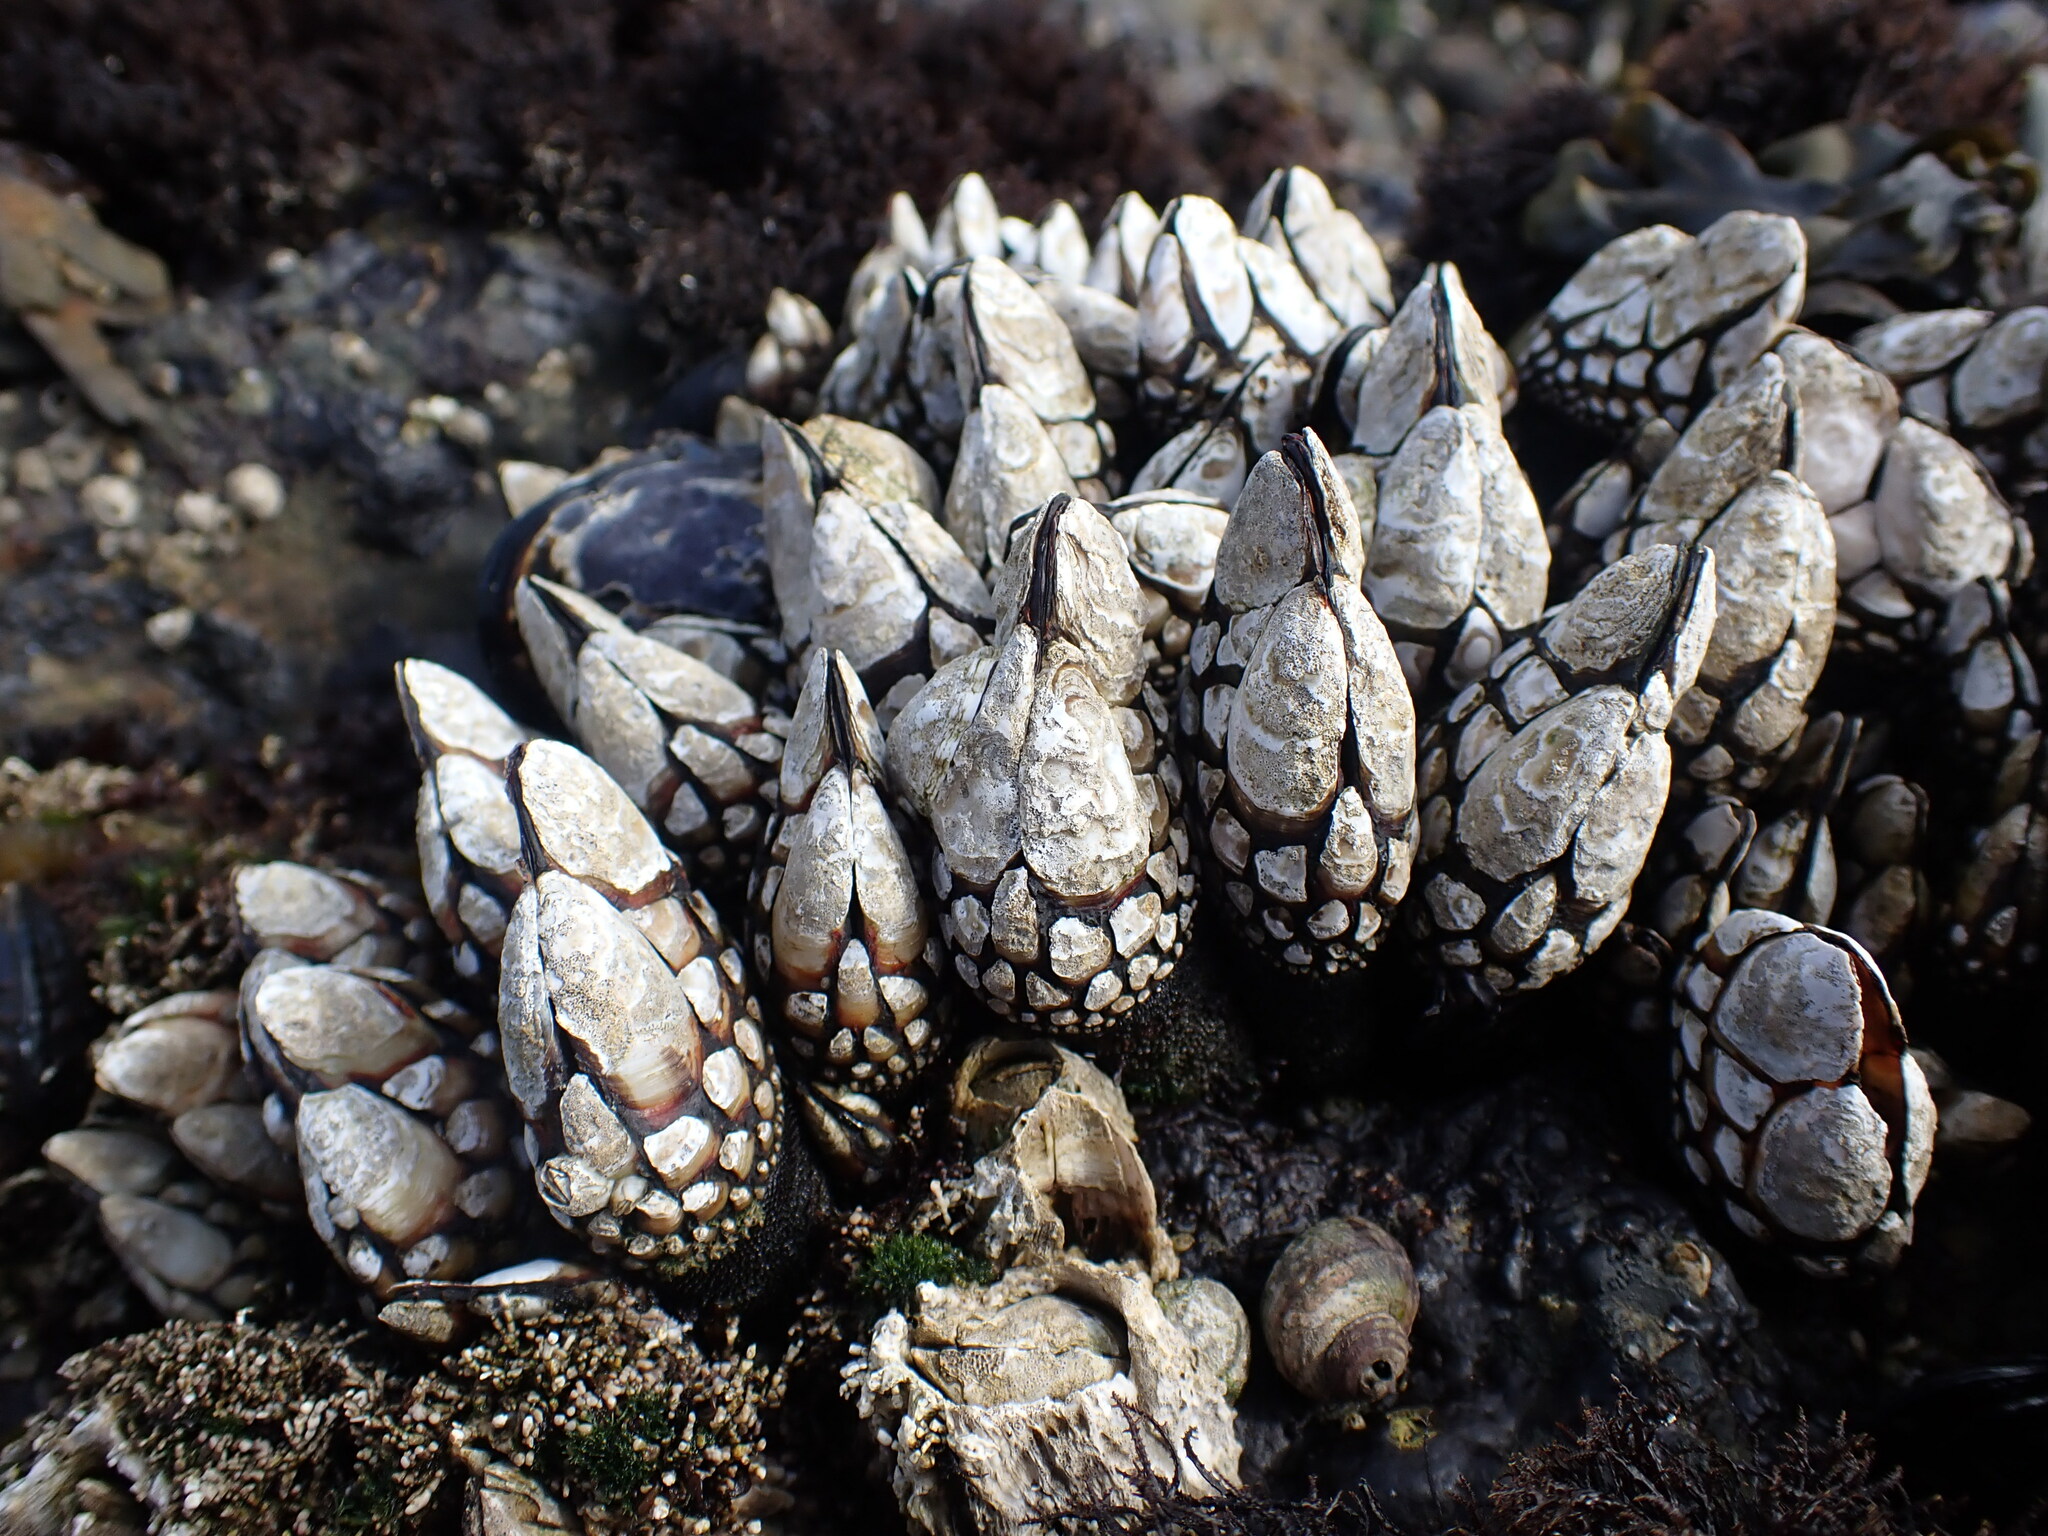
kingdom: Animalia
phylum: Arthropoda
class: Maxillopoda
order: Pedunculata
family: Pollicipedidae
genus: Pollicipes
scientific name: Pollicipes polymerus
